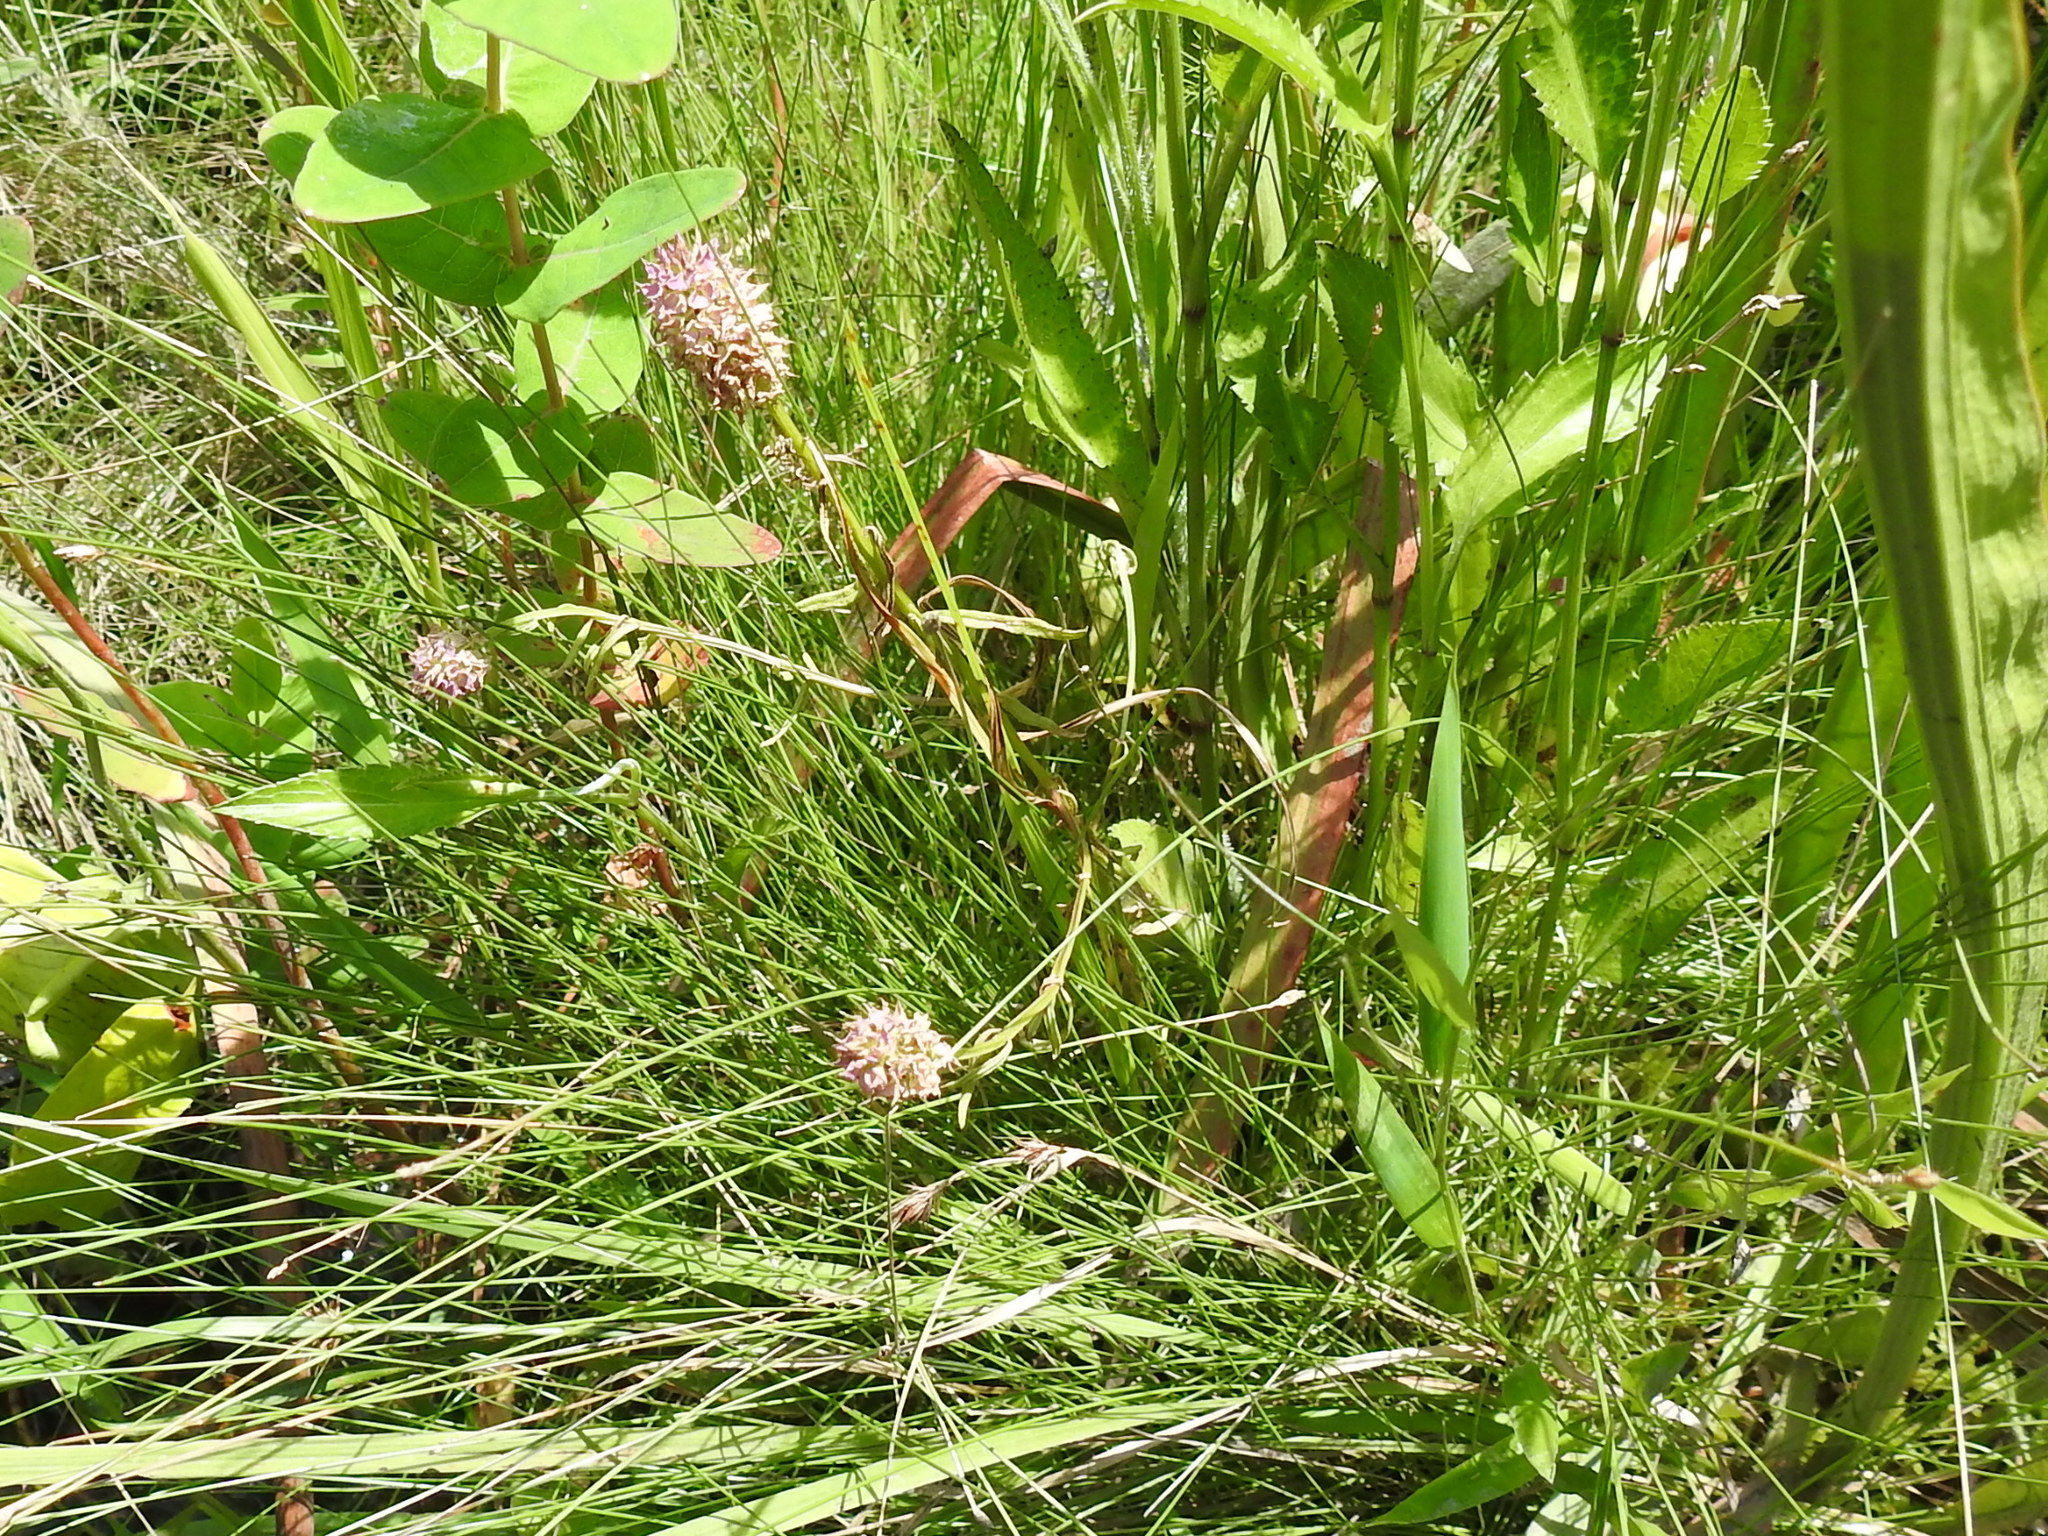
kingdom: Plantae
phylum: Tracheophyta
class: Magnoliopsida
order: Fabales
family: Polygalaceae
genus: Polygala
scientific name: Polygala cruciata
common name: Drumheads
